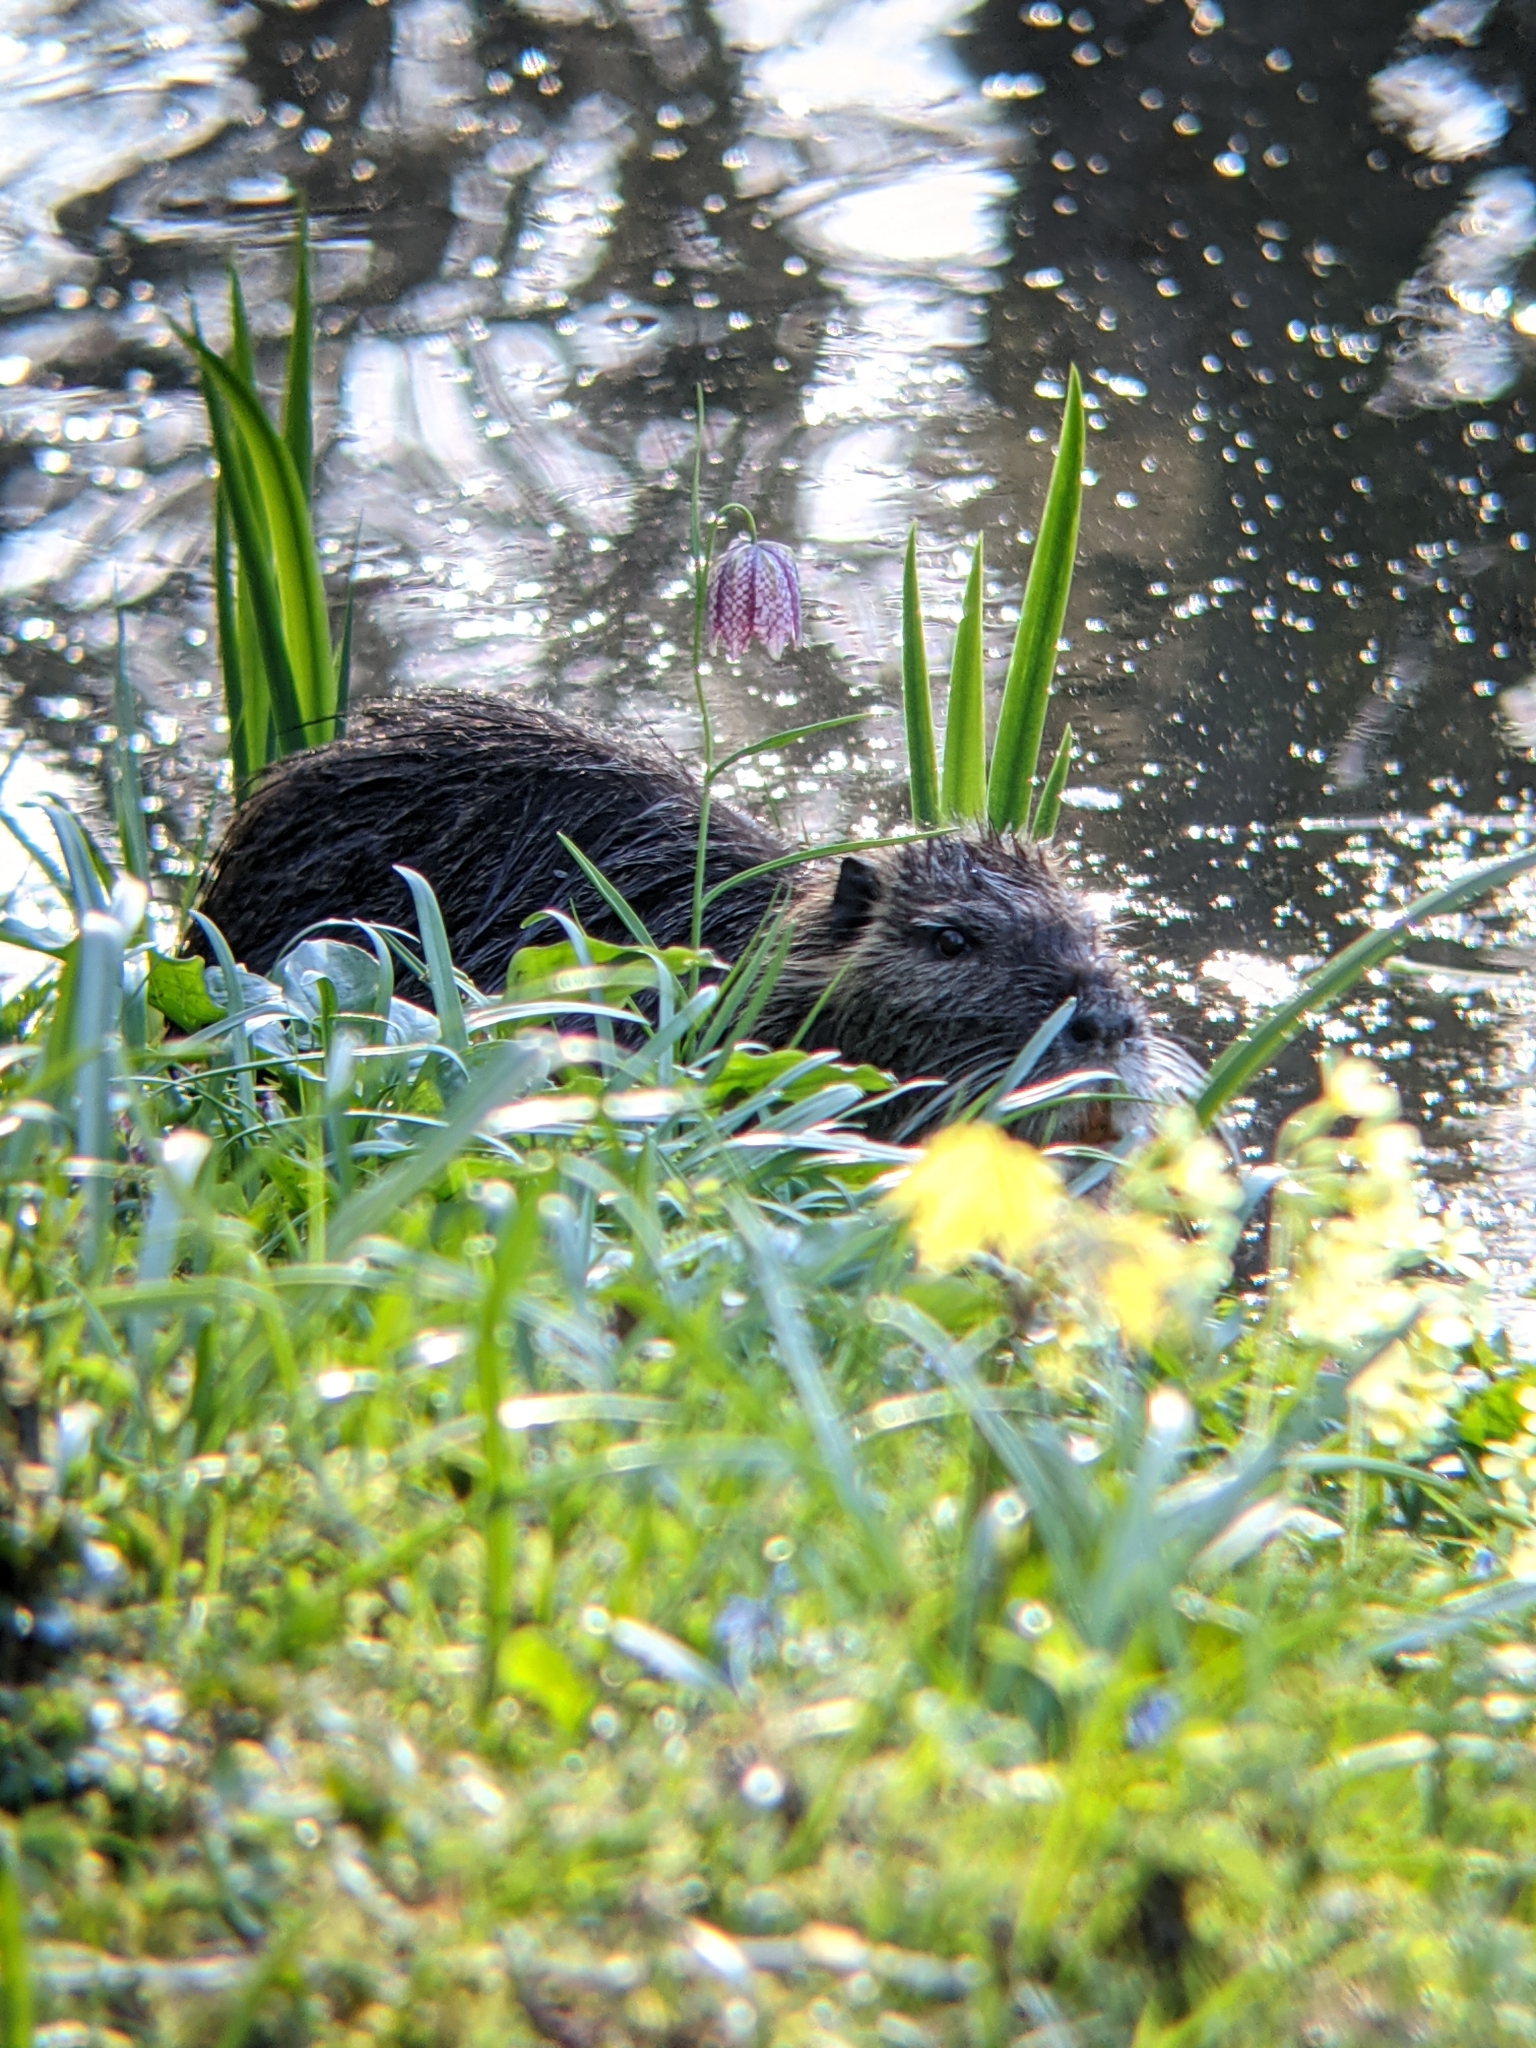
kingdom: Animalia
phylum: Chordata
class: Mammalia
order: Rodentia
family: Myocastoridae
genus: Myocastor
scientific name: Myocastor coypus
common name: Coypu
